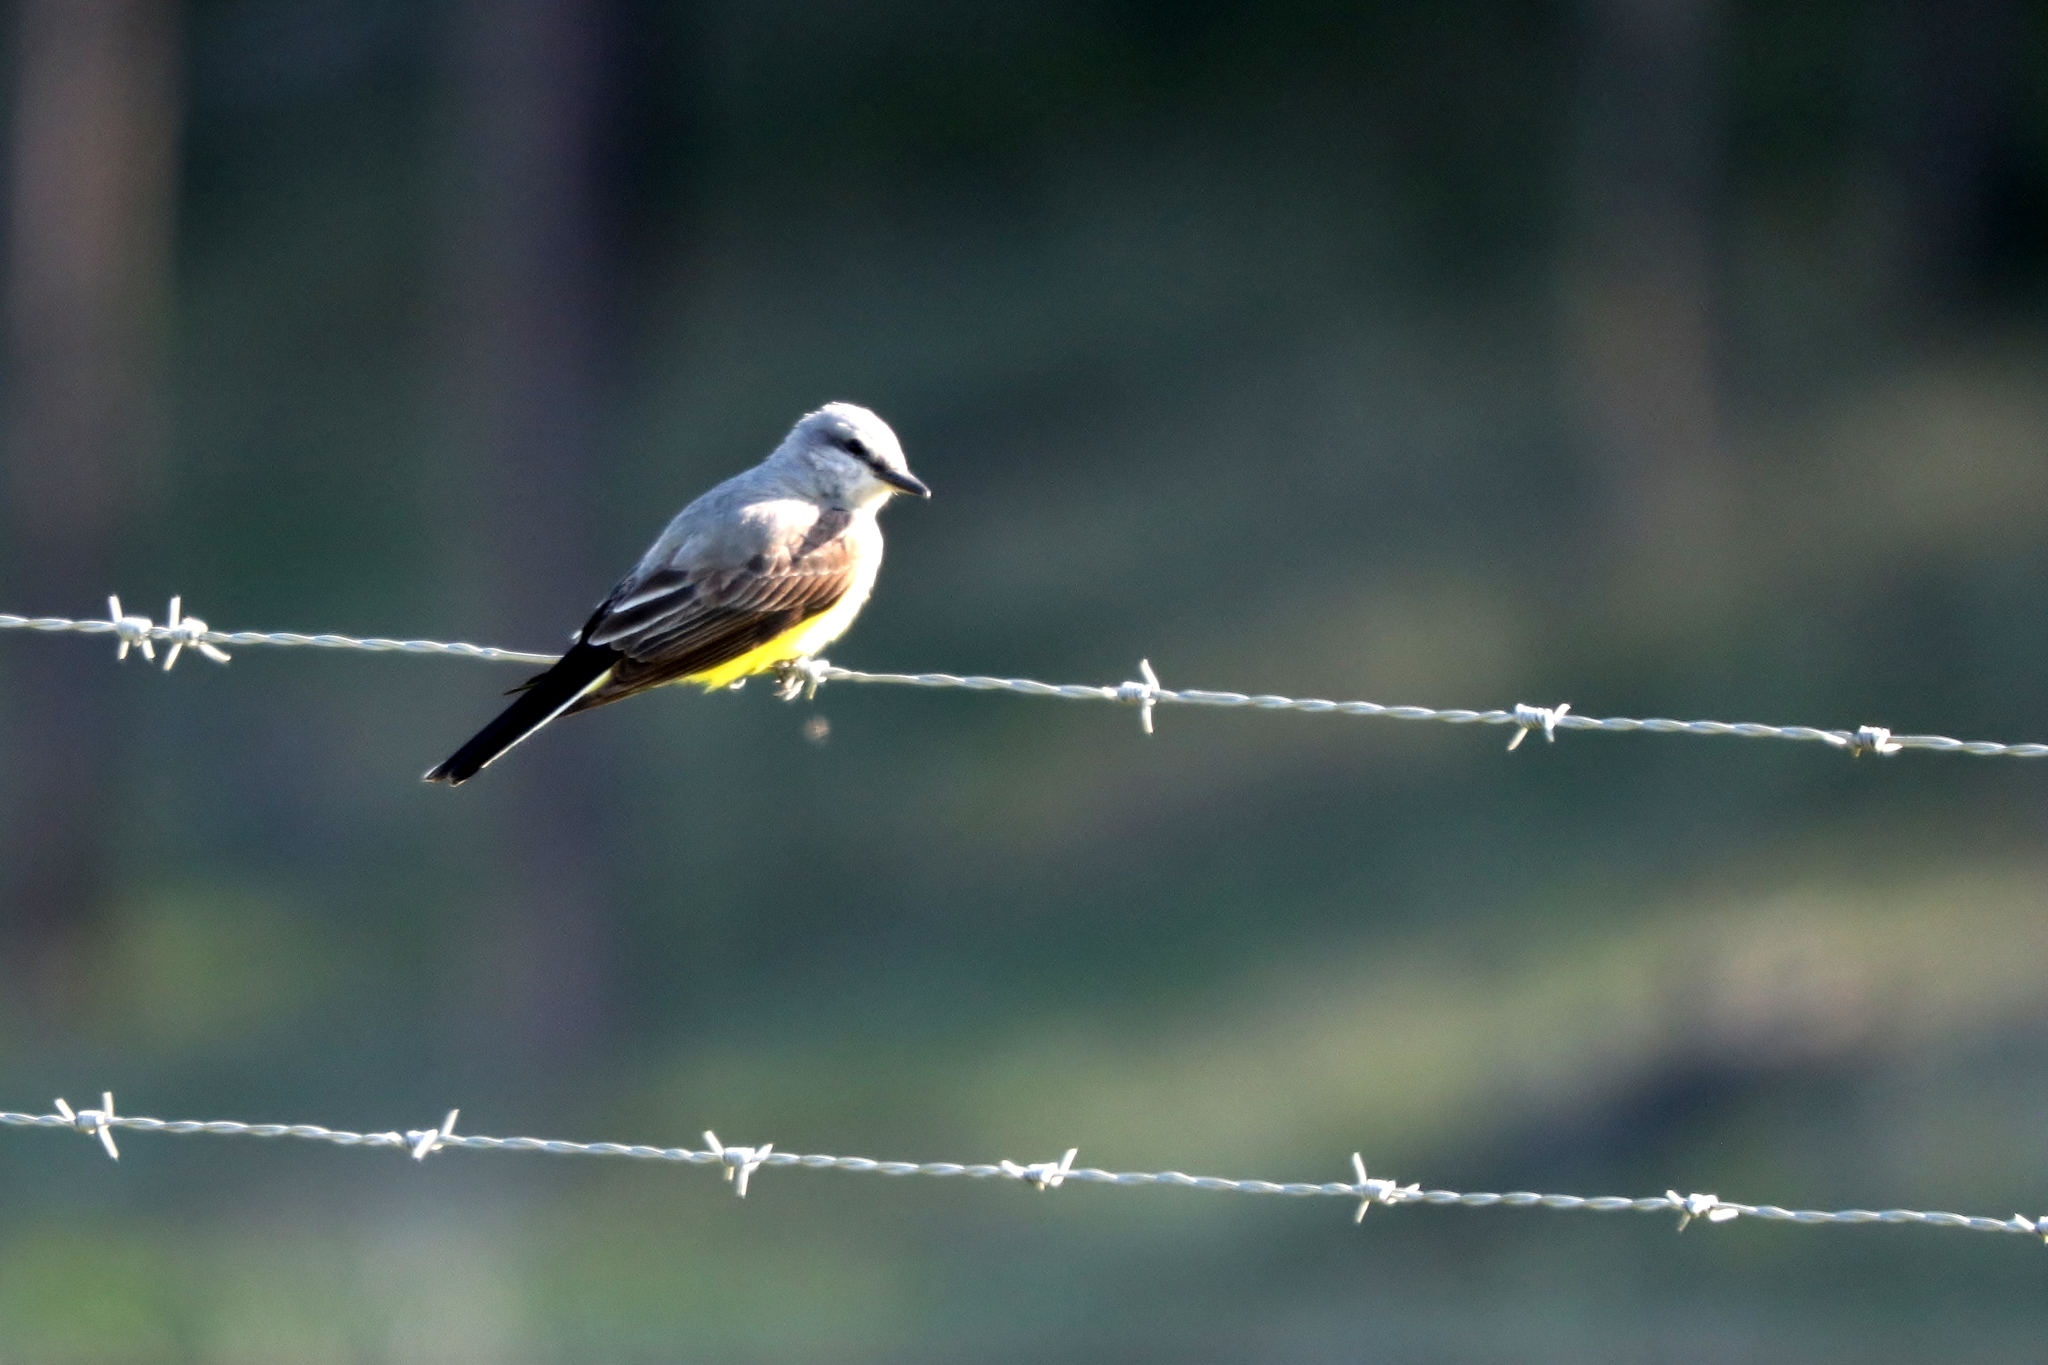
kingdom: Animalia
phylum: Chordata
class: Aves
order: Passeriformes
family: Tyrannidae
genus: Tyrannus
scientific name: Tyrannus verticalis
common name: Western kingbird
